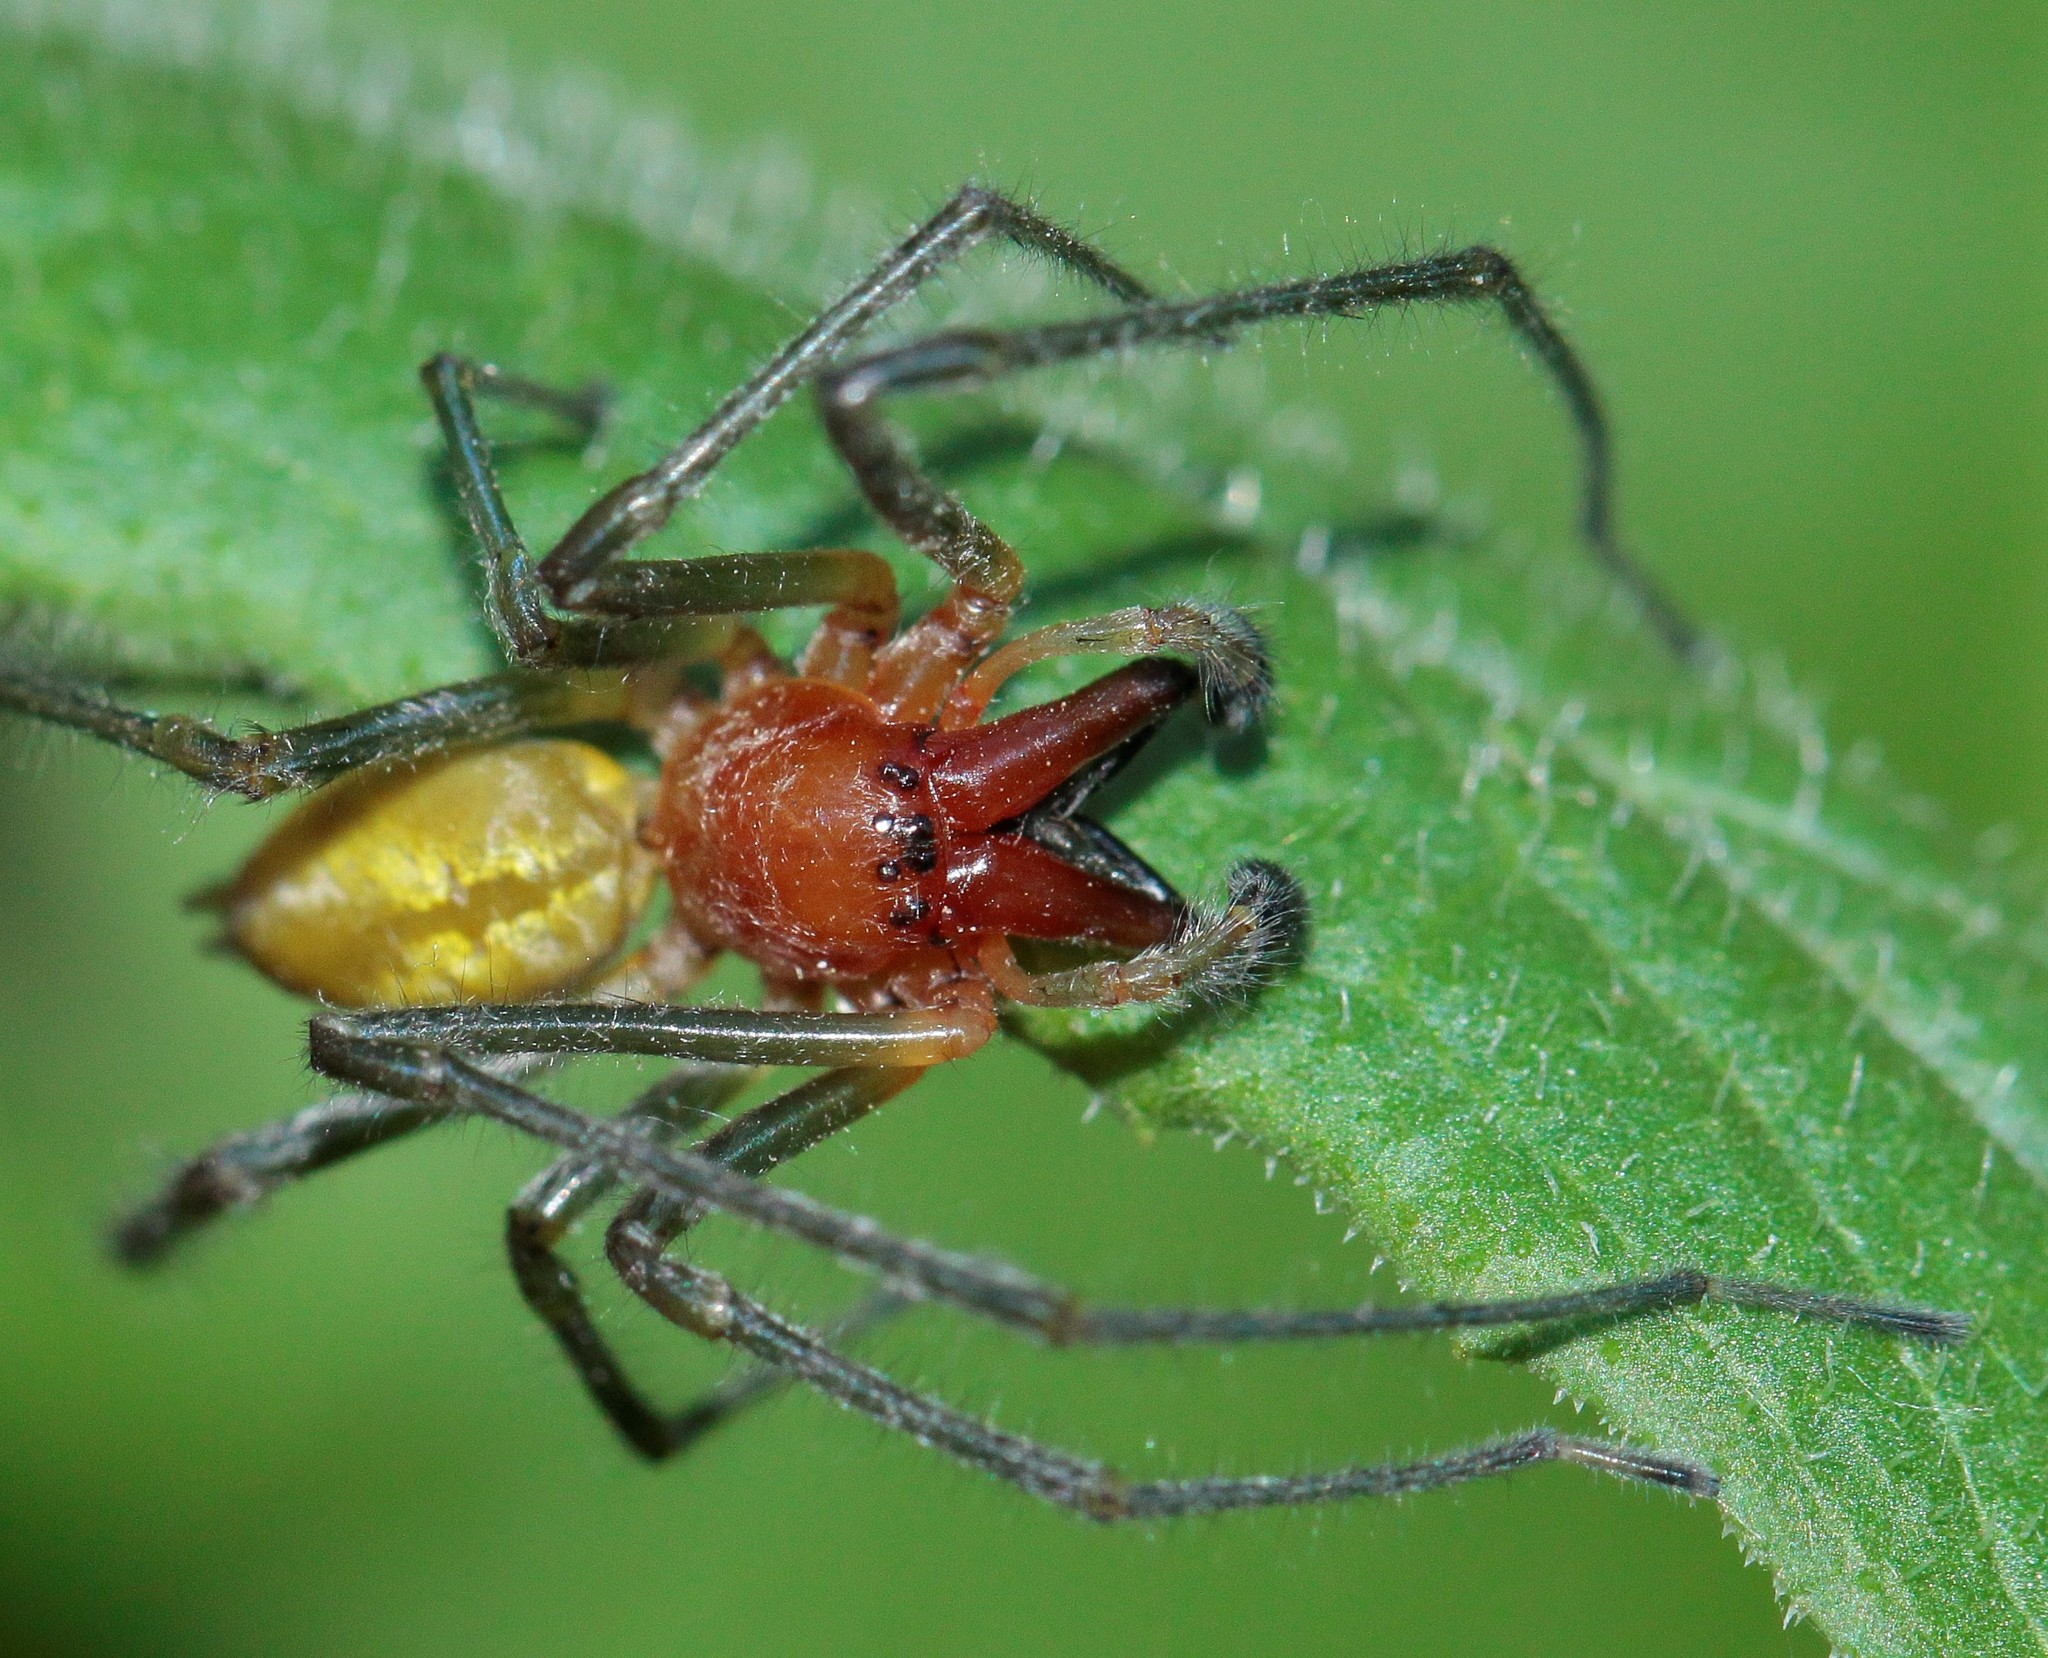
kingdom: Animalia
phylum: Arthropoda
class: Arachnida
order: Araneae
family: Cheiracanthiidae
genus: Cheiracanthium
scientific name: Cheiracanthium punctorium
